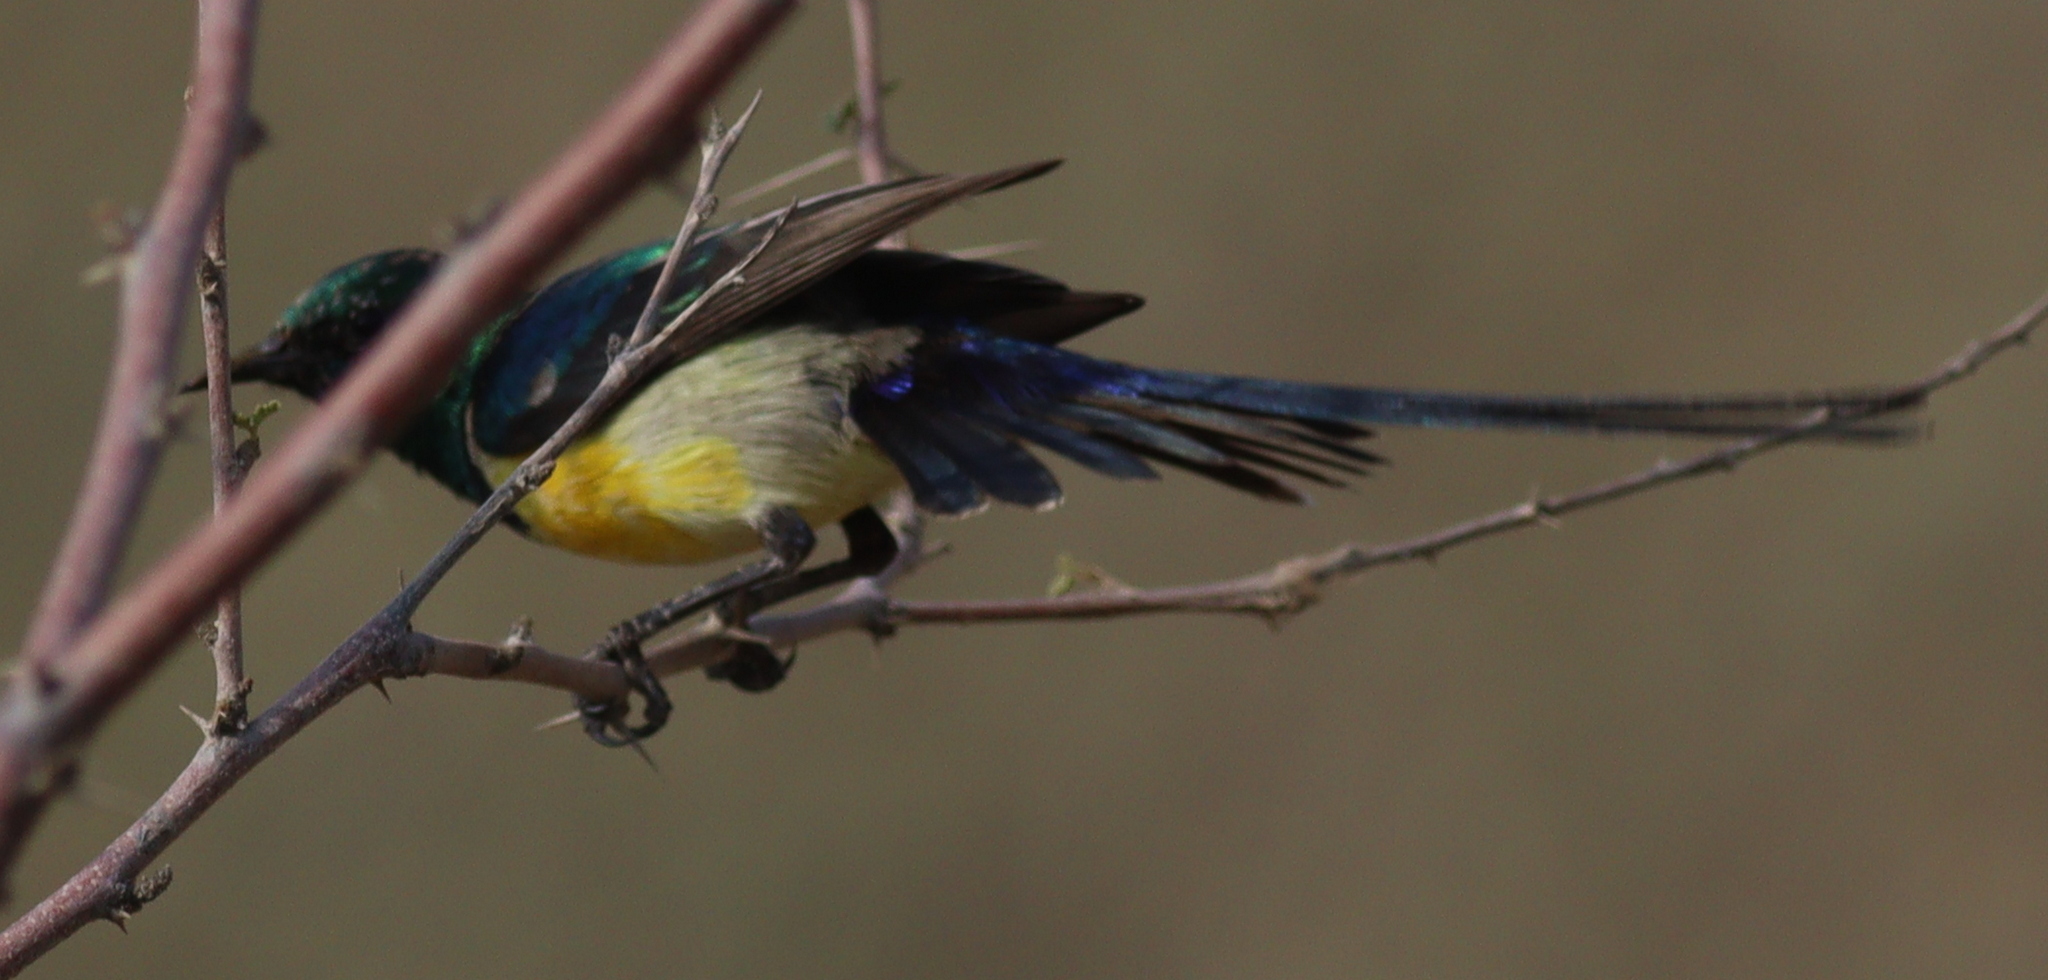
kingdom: Animalia
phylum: Chordata
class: Aves
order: Passeriformes
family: Nectariniidae
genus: Hedydipna
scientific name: Hedydipna metallica
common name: Nile valley sunbird
